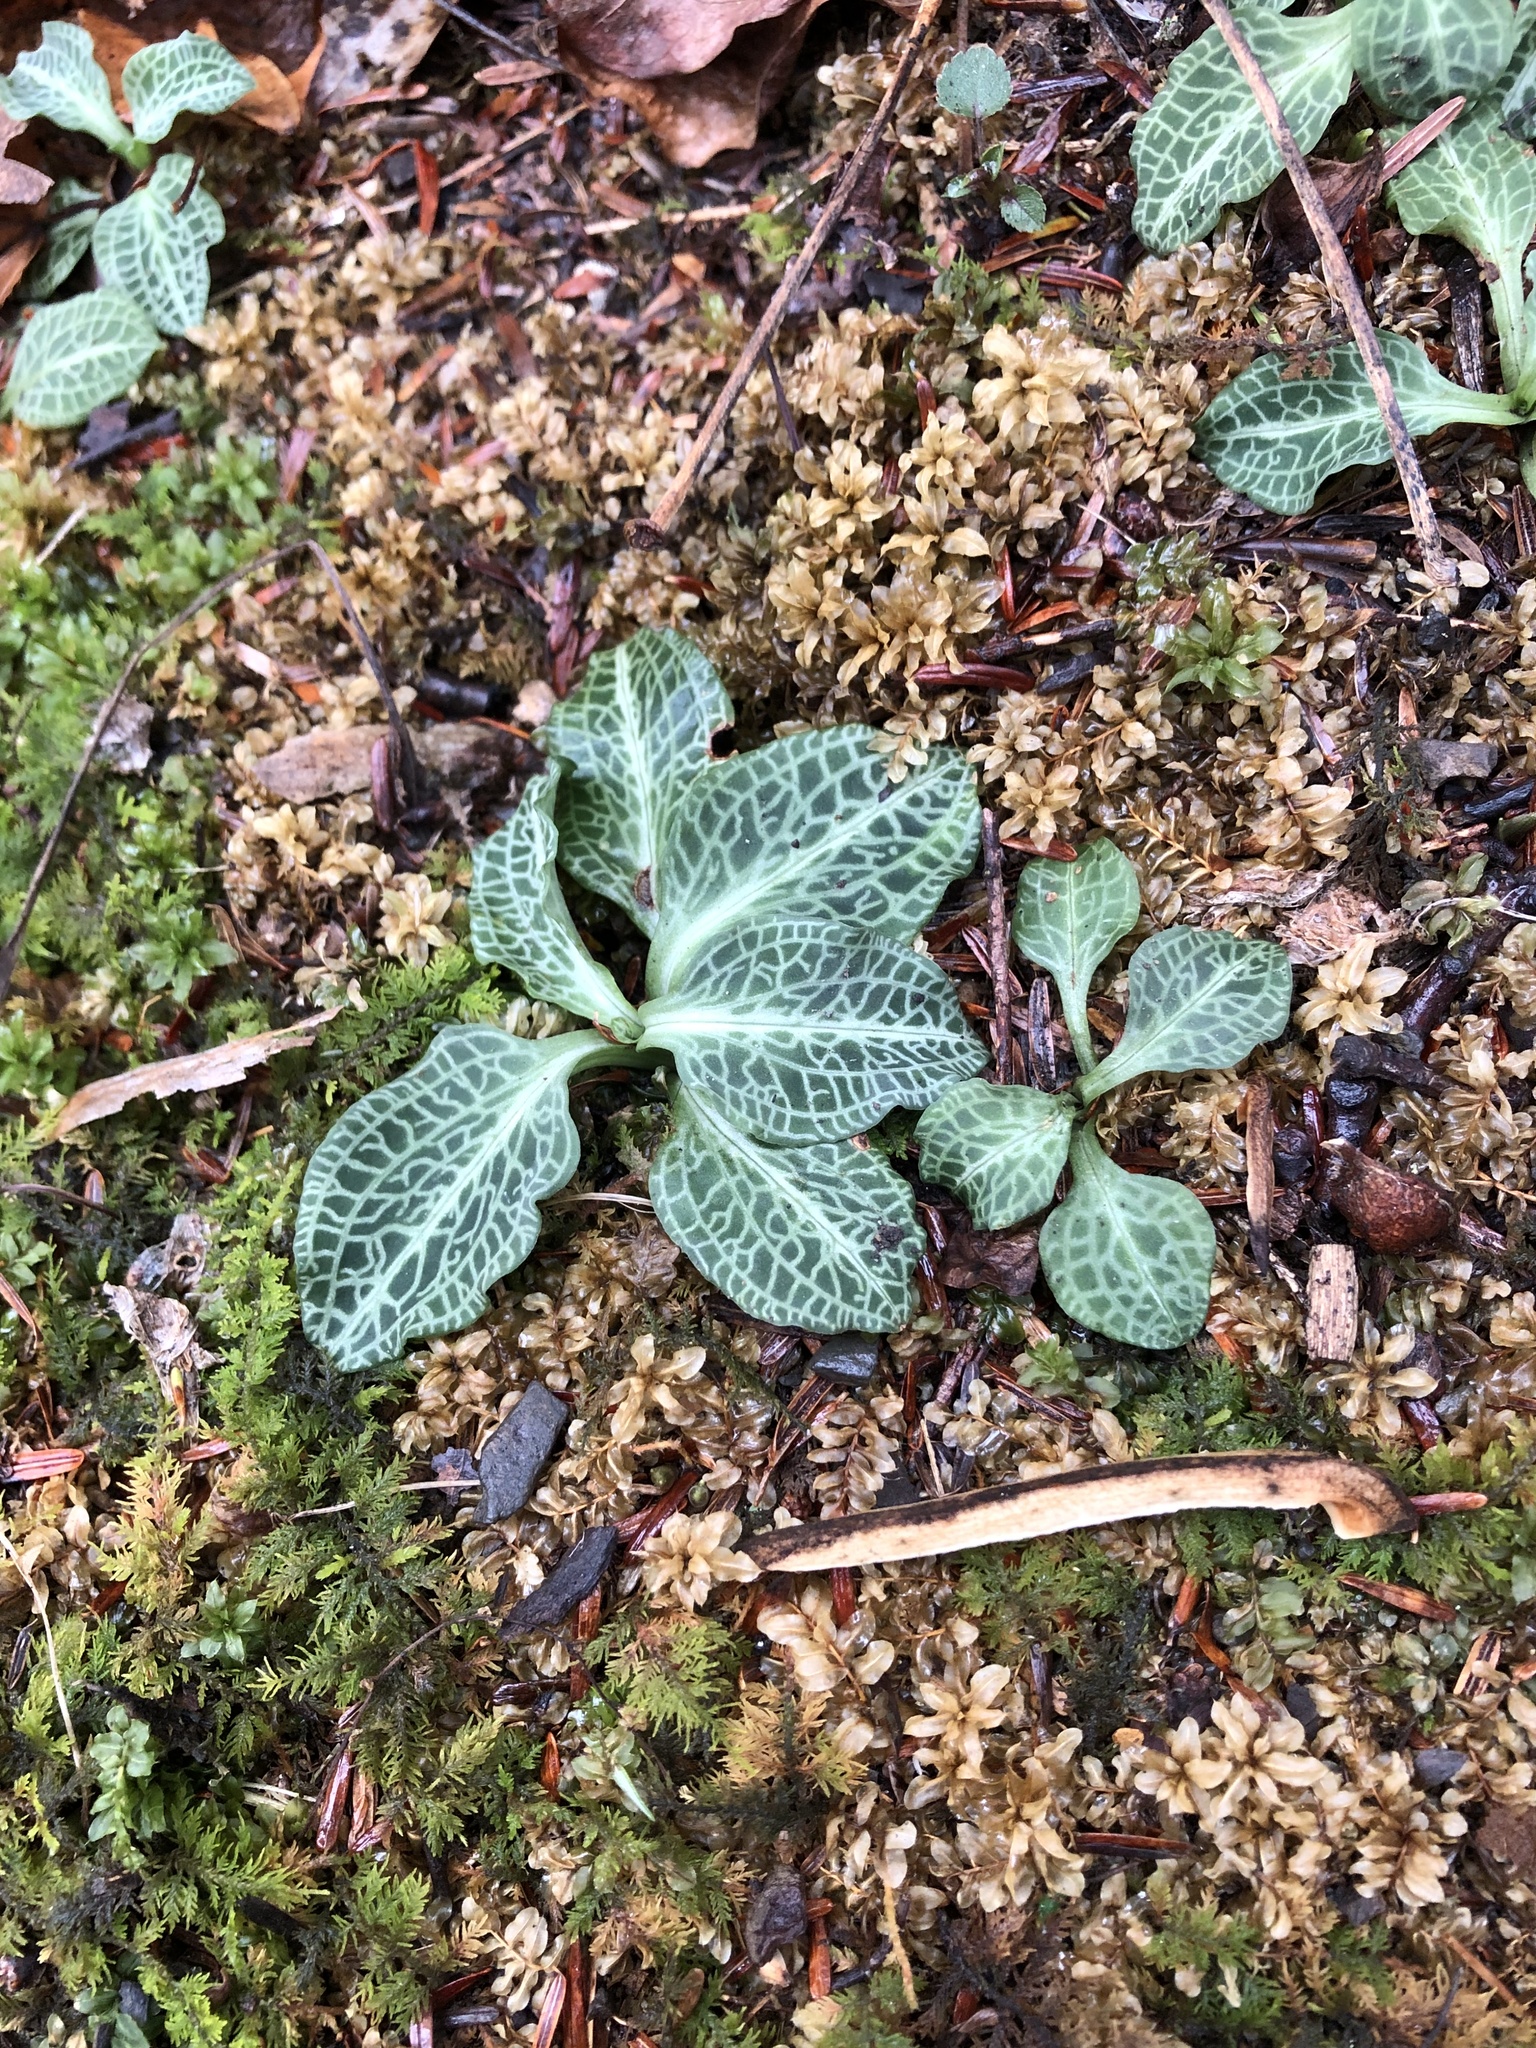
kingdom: Plantae
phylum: Tracheophyta
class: Liliopsida
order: Asparagales
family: Orchidaceae
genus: Goodyera
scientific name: Goodyera pubescens
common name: Downy rattlesnake-plantain
